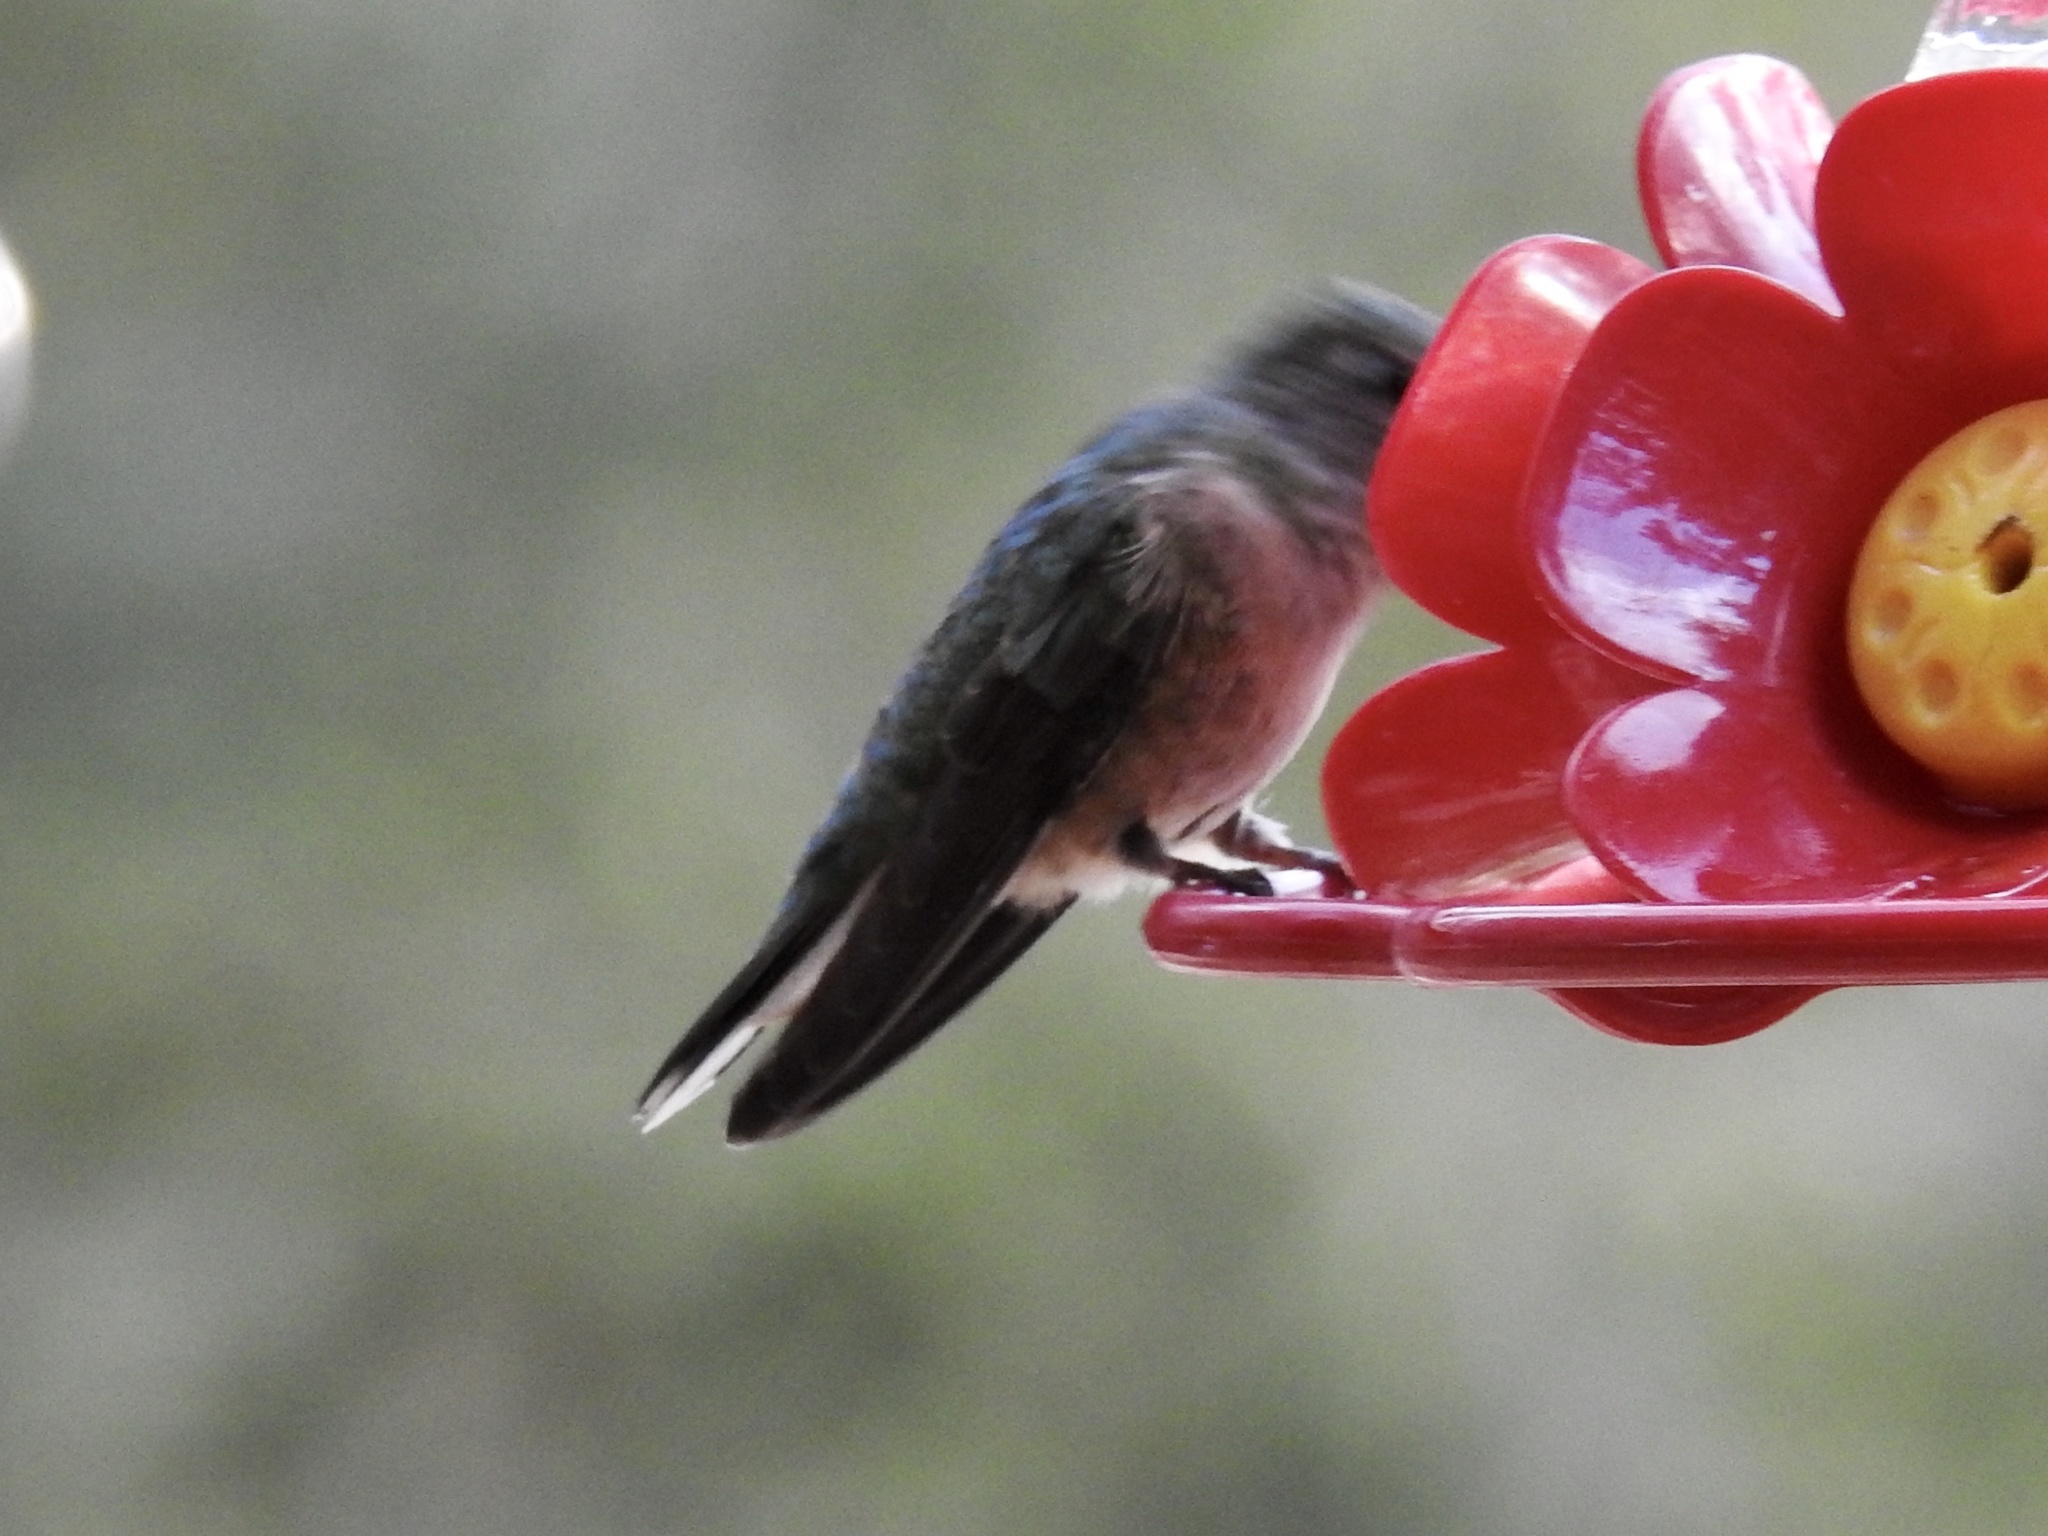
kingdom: Animalia
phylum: Chordata
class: Aves
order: Apodiformes
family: Trochilidae
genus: Selasphorus
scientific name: Selasphorus platycercus
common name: Broad-tailed hummingbird
